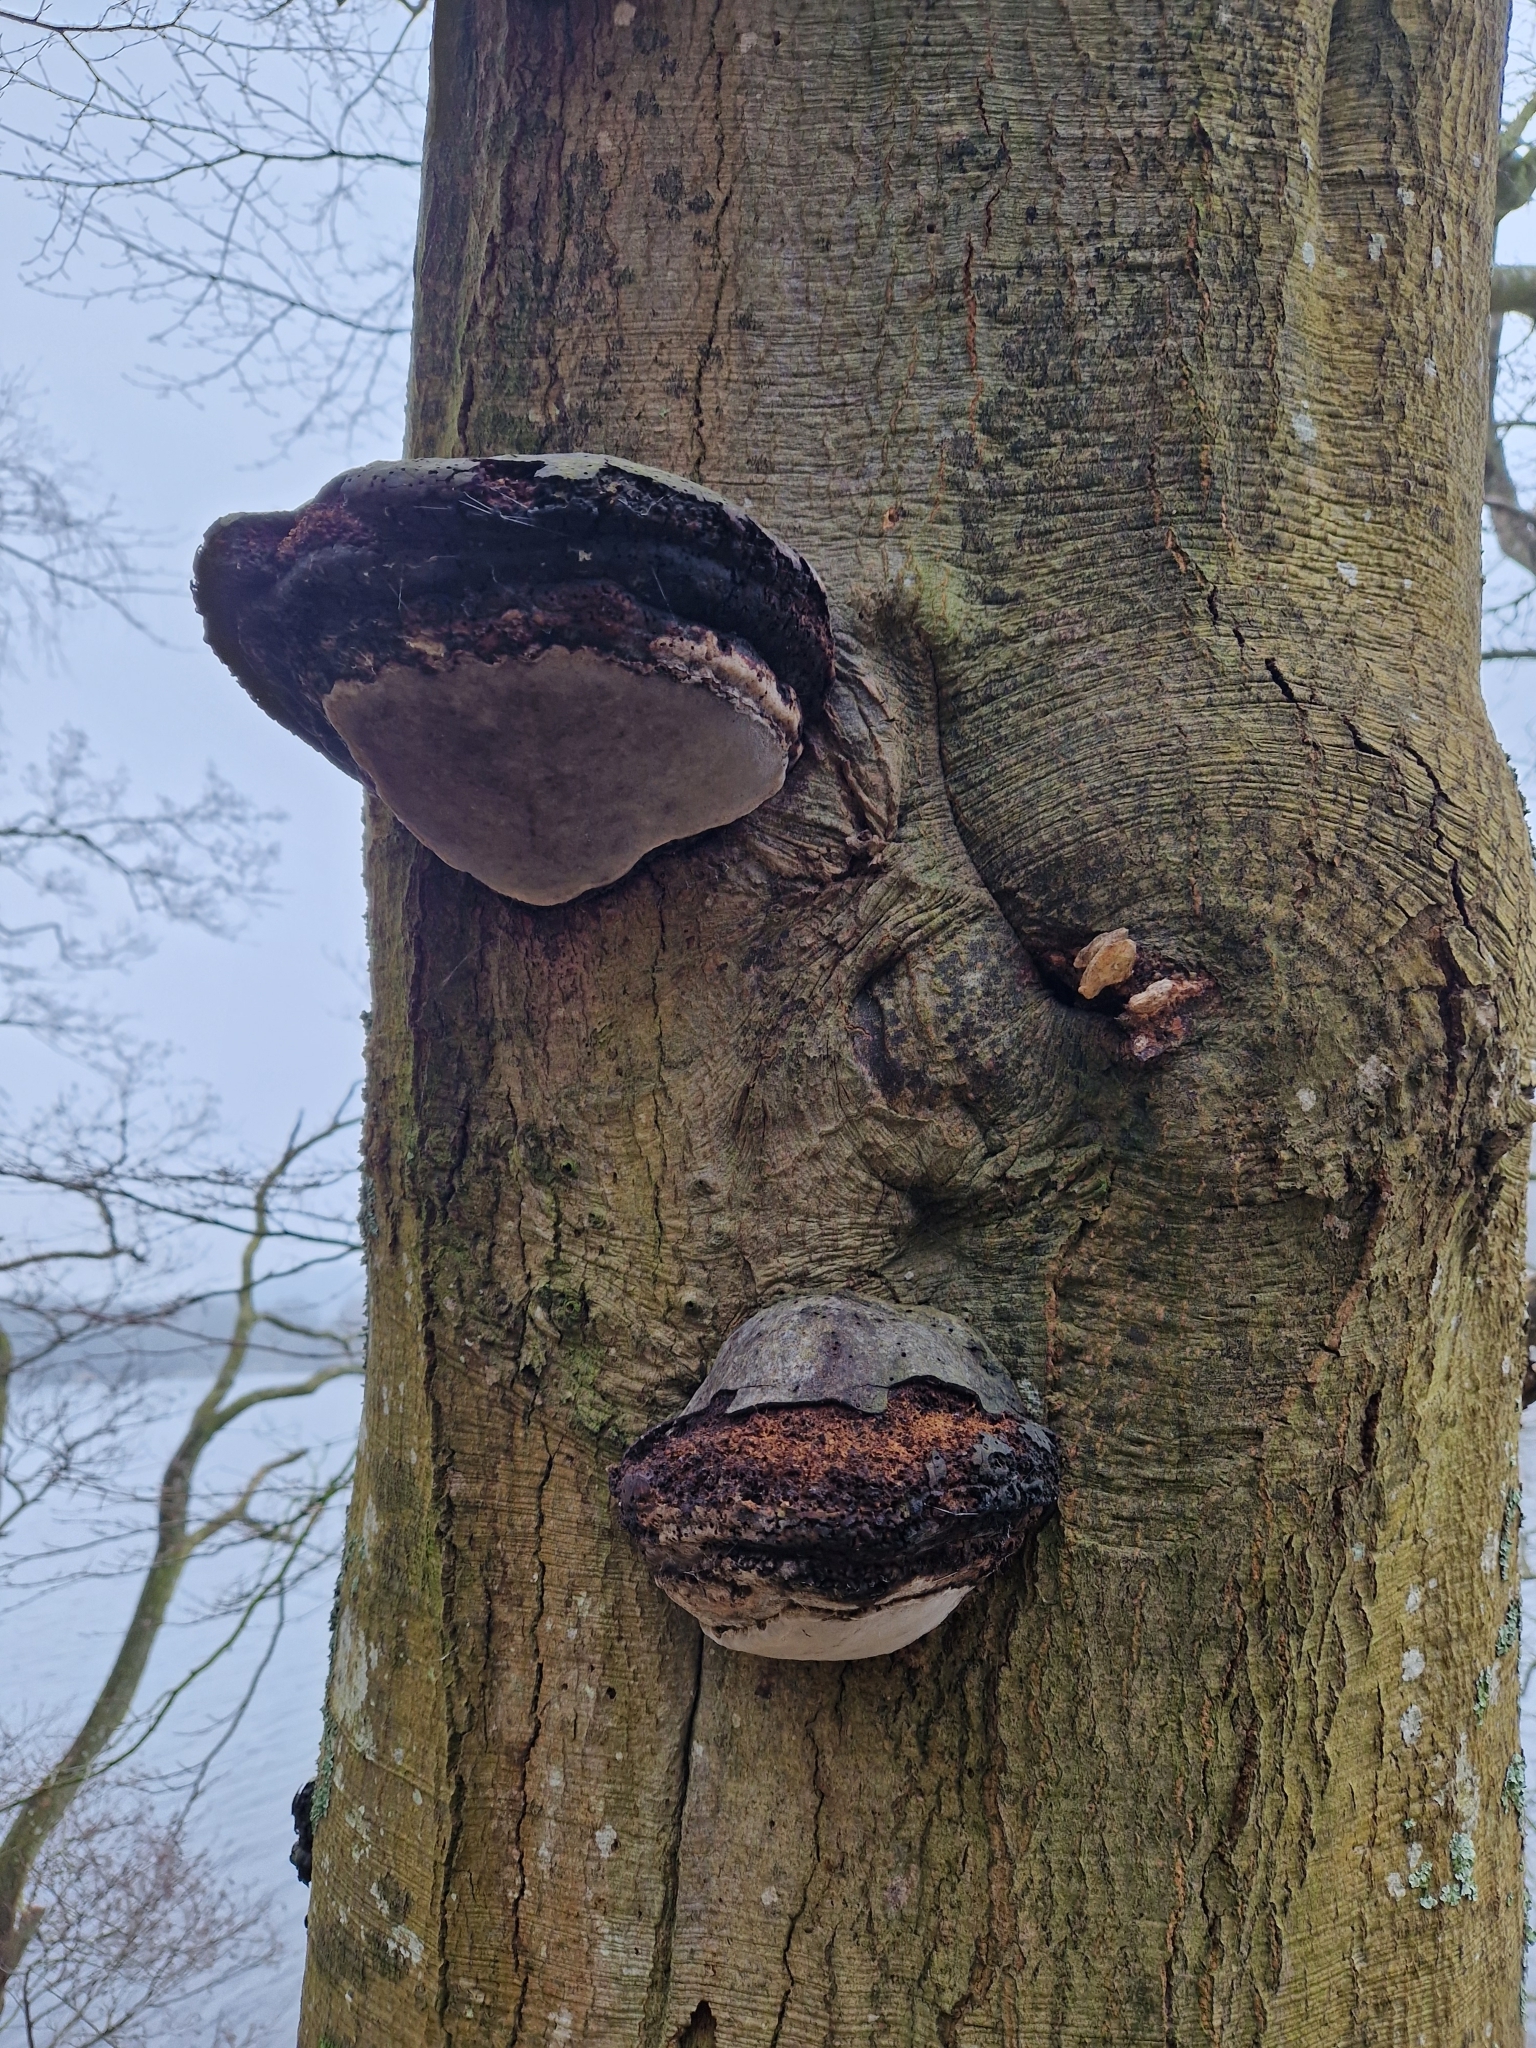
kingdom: Fungi
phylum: Basidiomycota
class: Agaricomycetes
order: Polyporales
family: Polyporaceae
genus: Fomes
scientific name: Fomes fomentarius
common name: Hoof fungus
